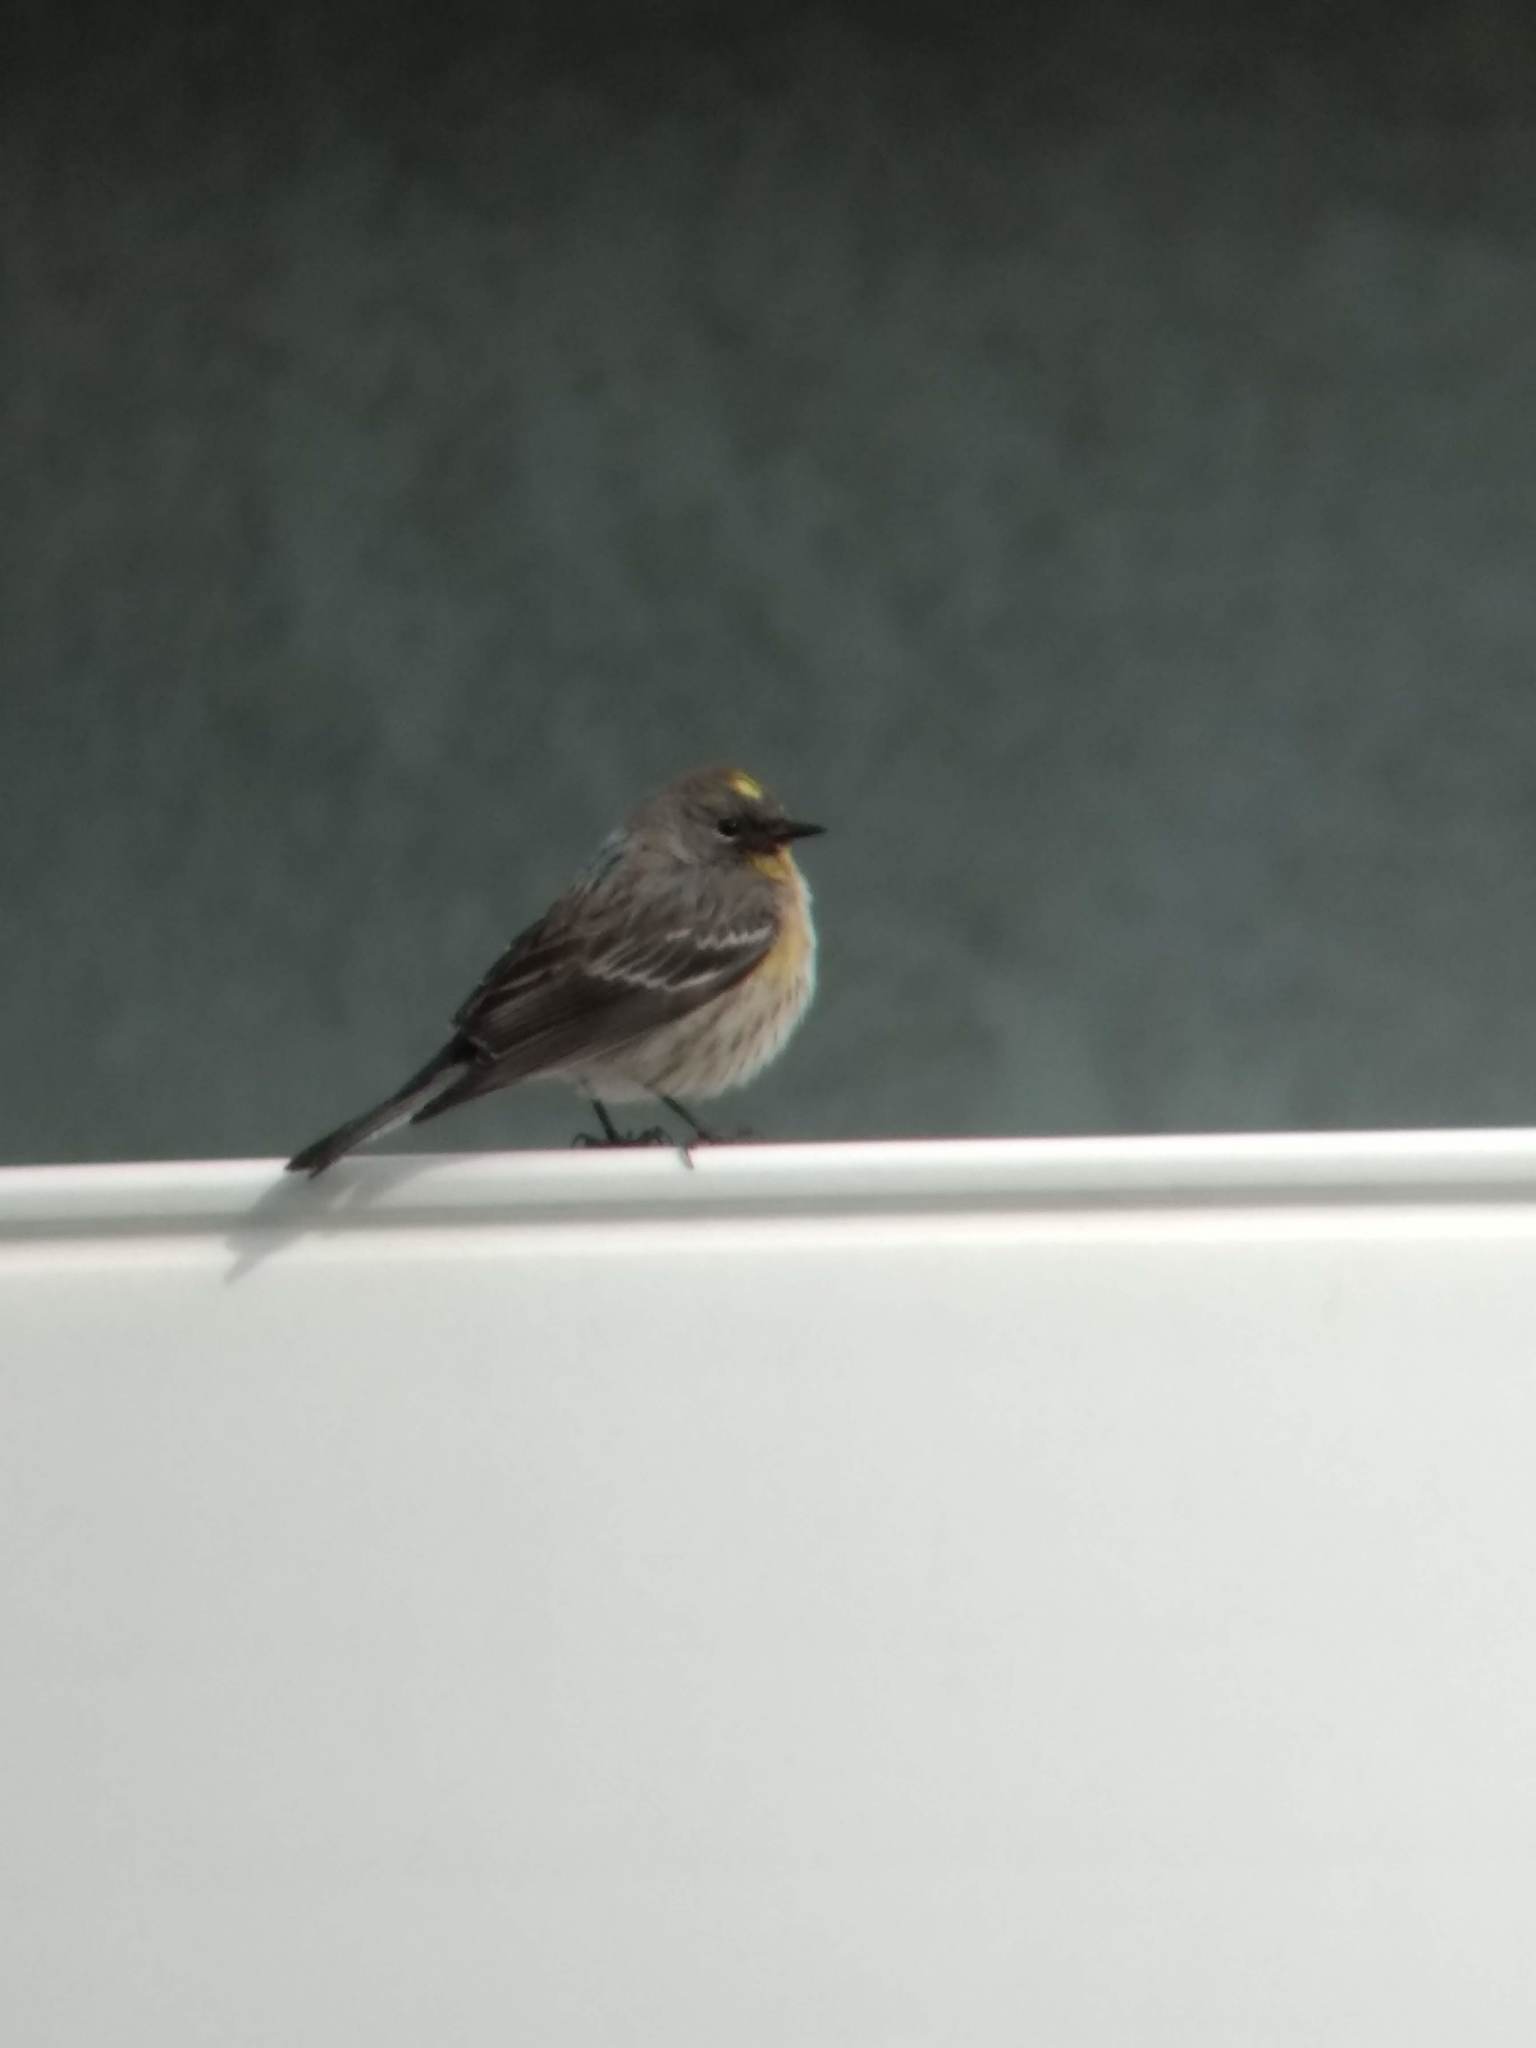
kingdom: Animalia
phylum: Chordata
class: Aves
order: Passeriformes
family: Parulidae
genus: Setophaga
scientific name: Setophaga coronata
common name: Myrtle warbler
